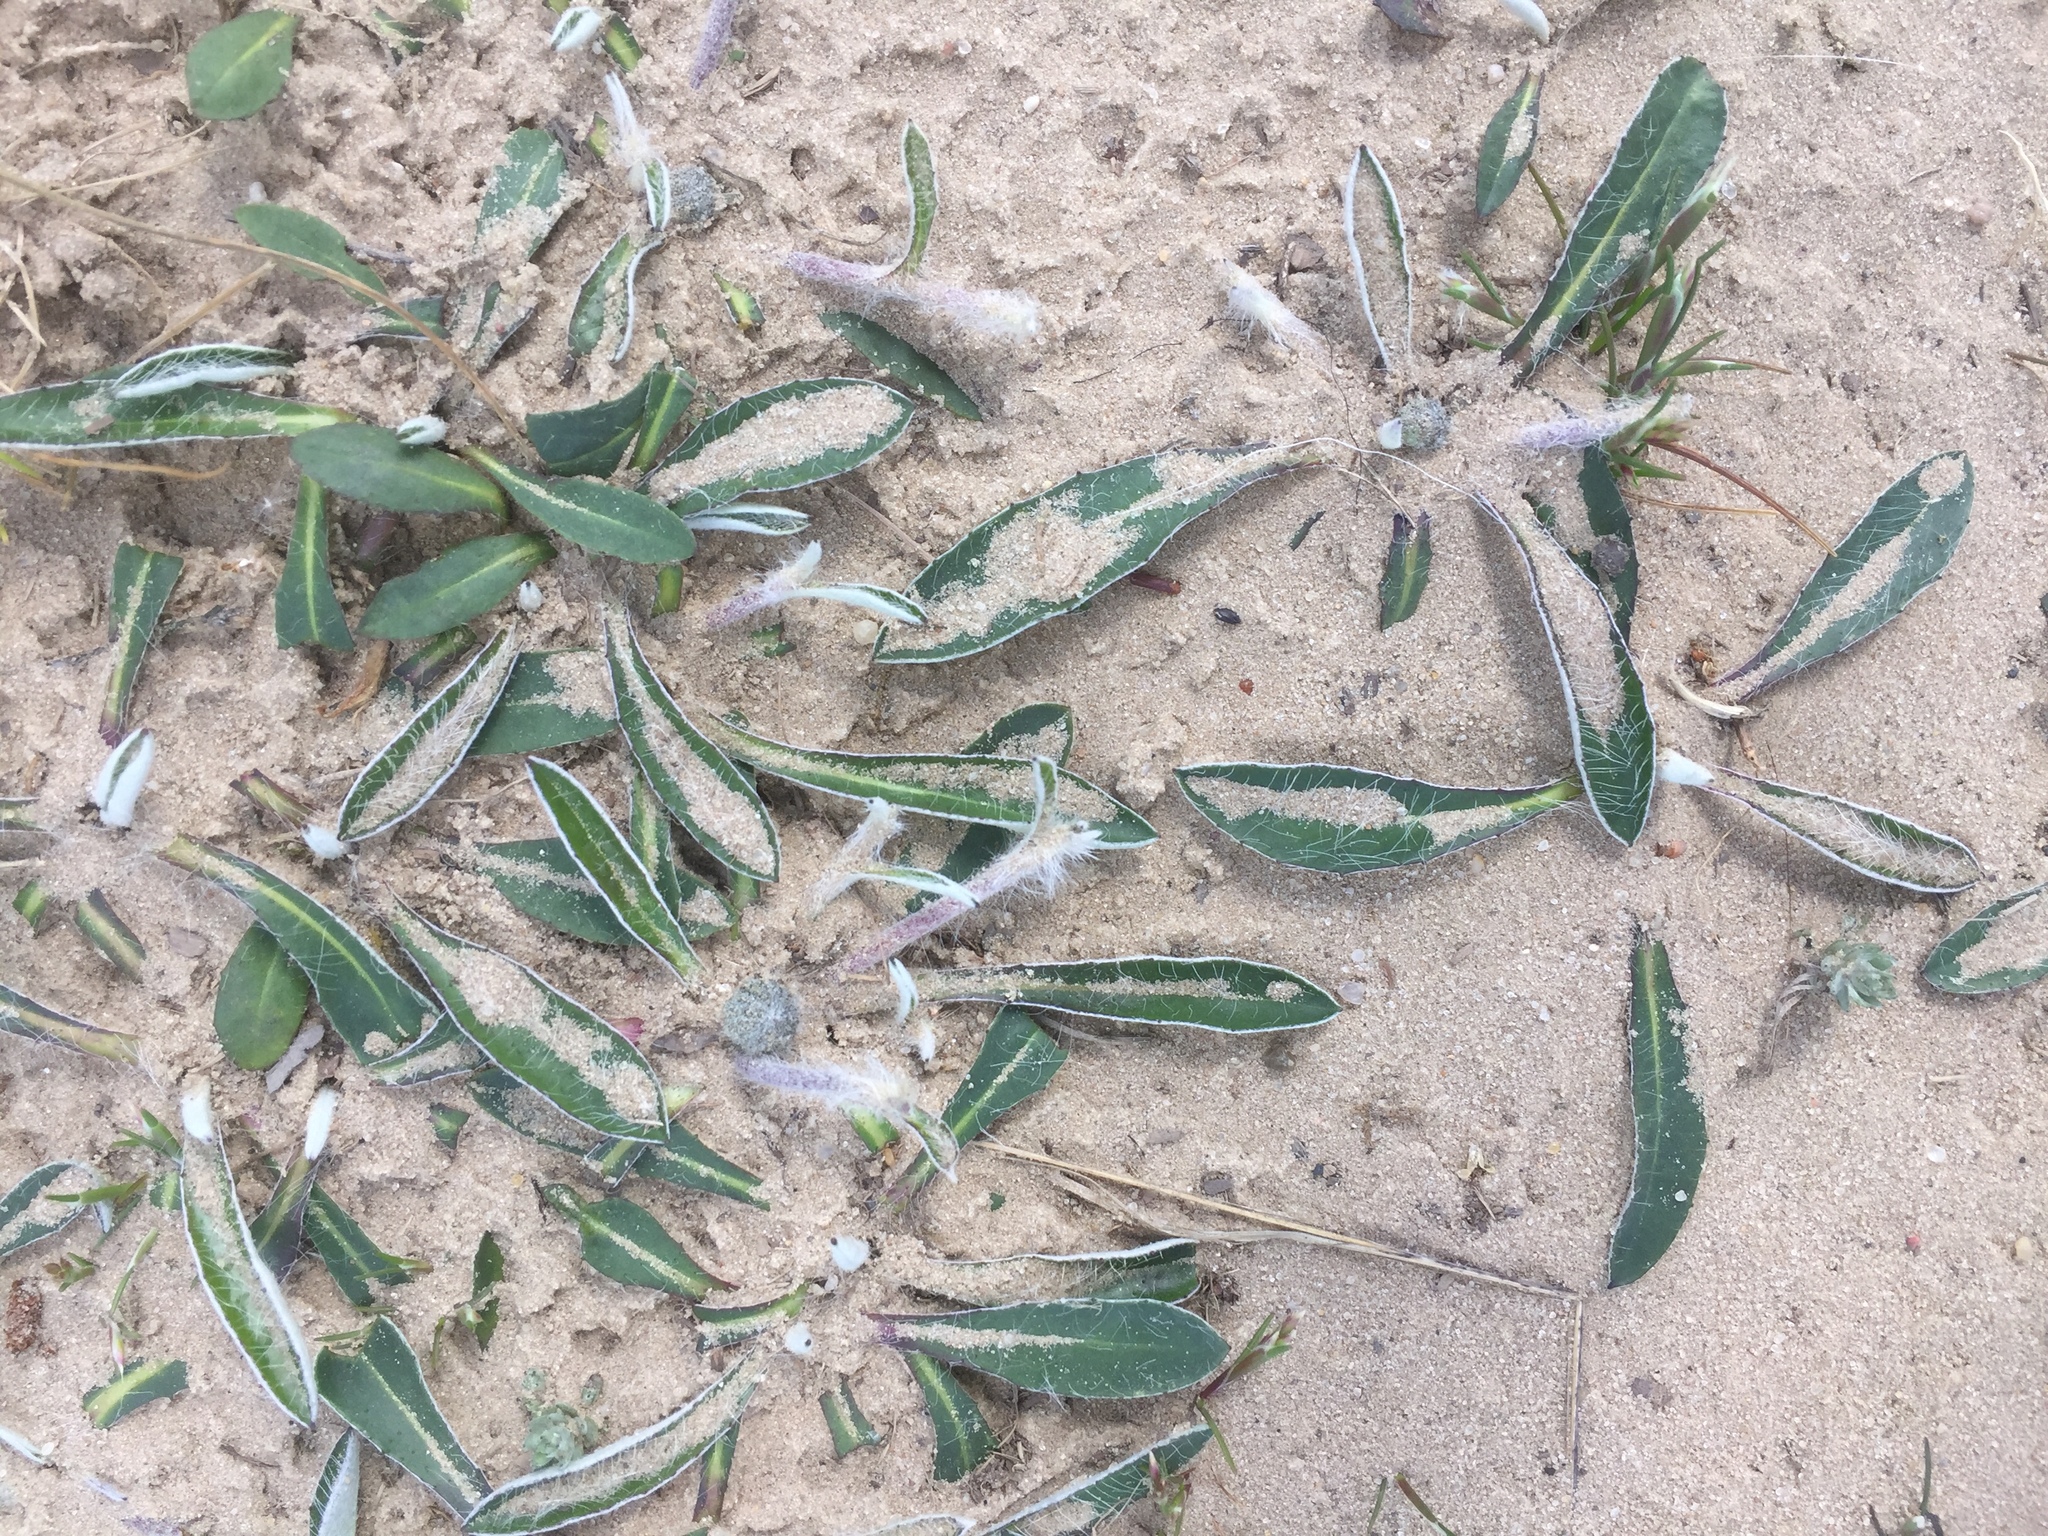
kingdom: Plantae
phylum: Tracheophyta
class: Magnoliopsida
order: Asterales
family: Asteraceae
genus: Pilosella
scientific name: Pilosella officinarum
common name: Mouse-ear hawkweed
